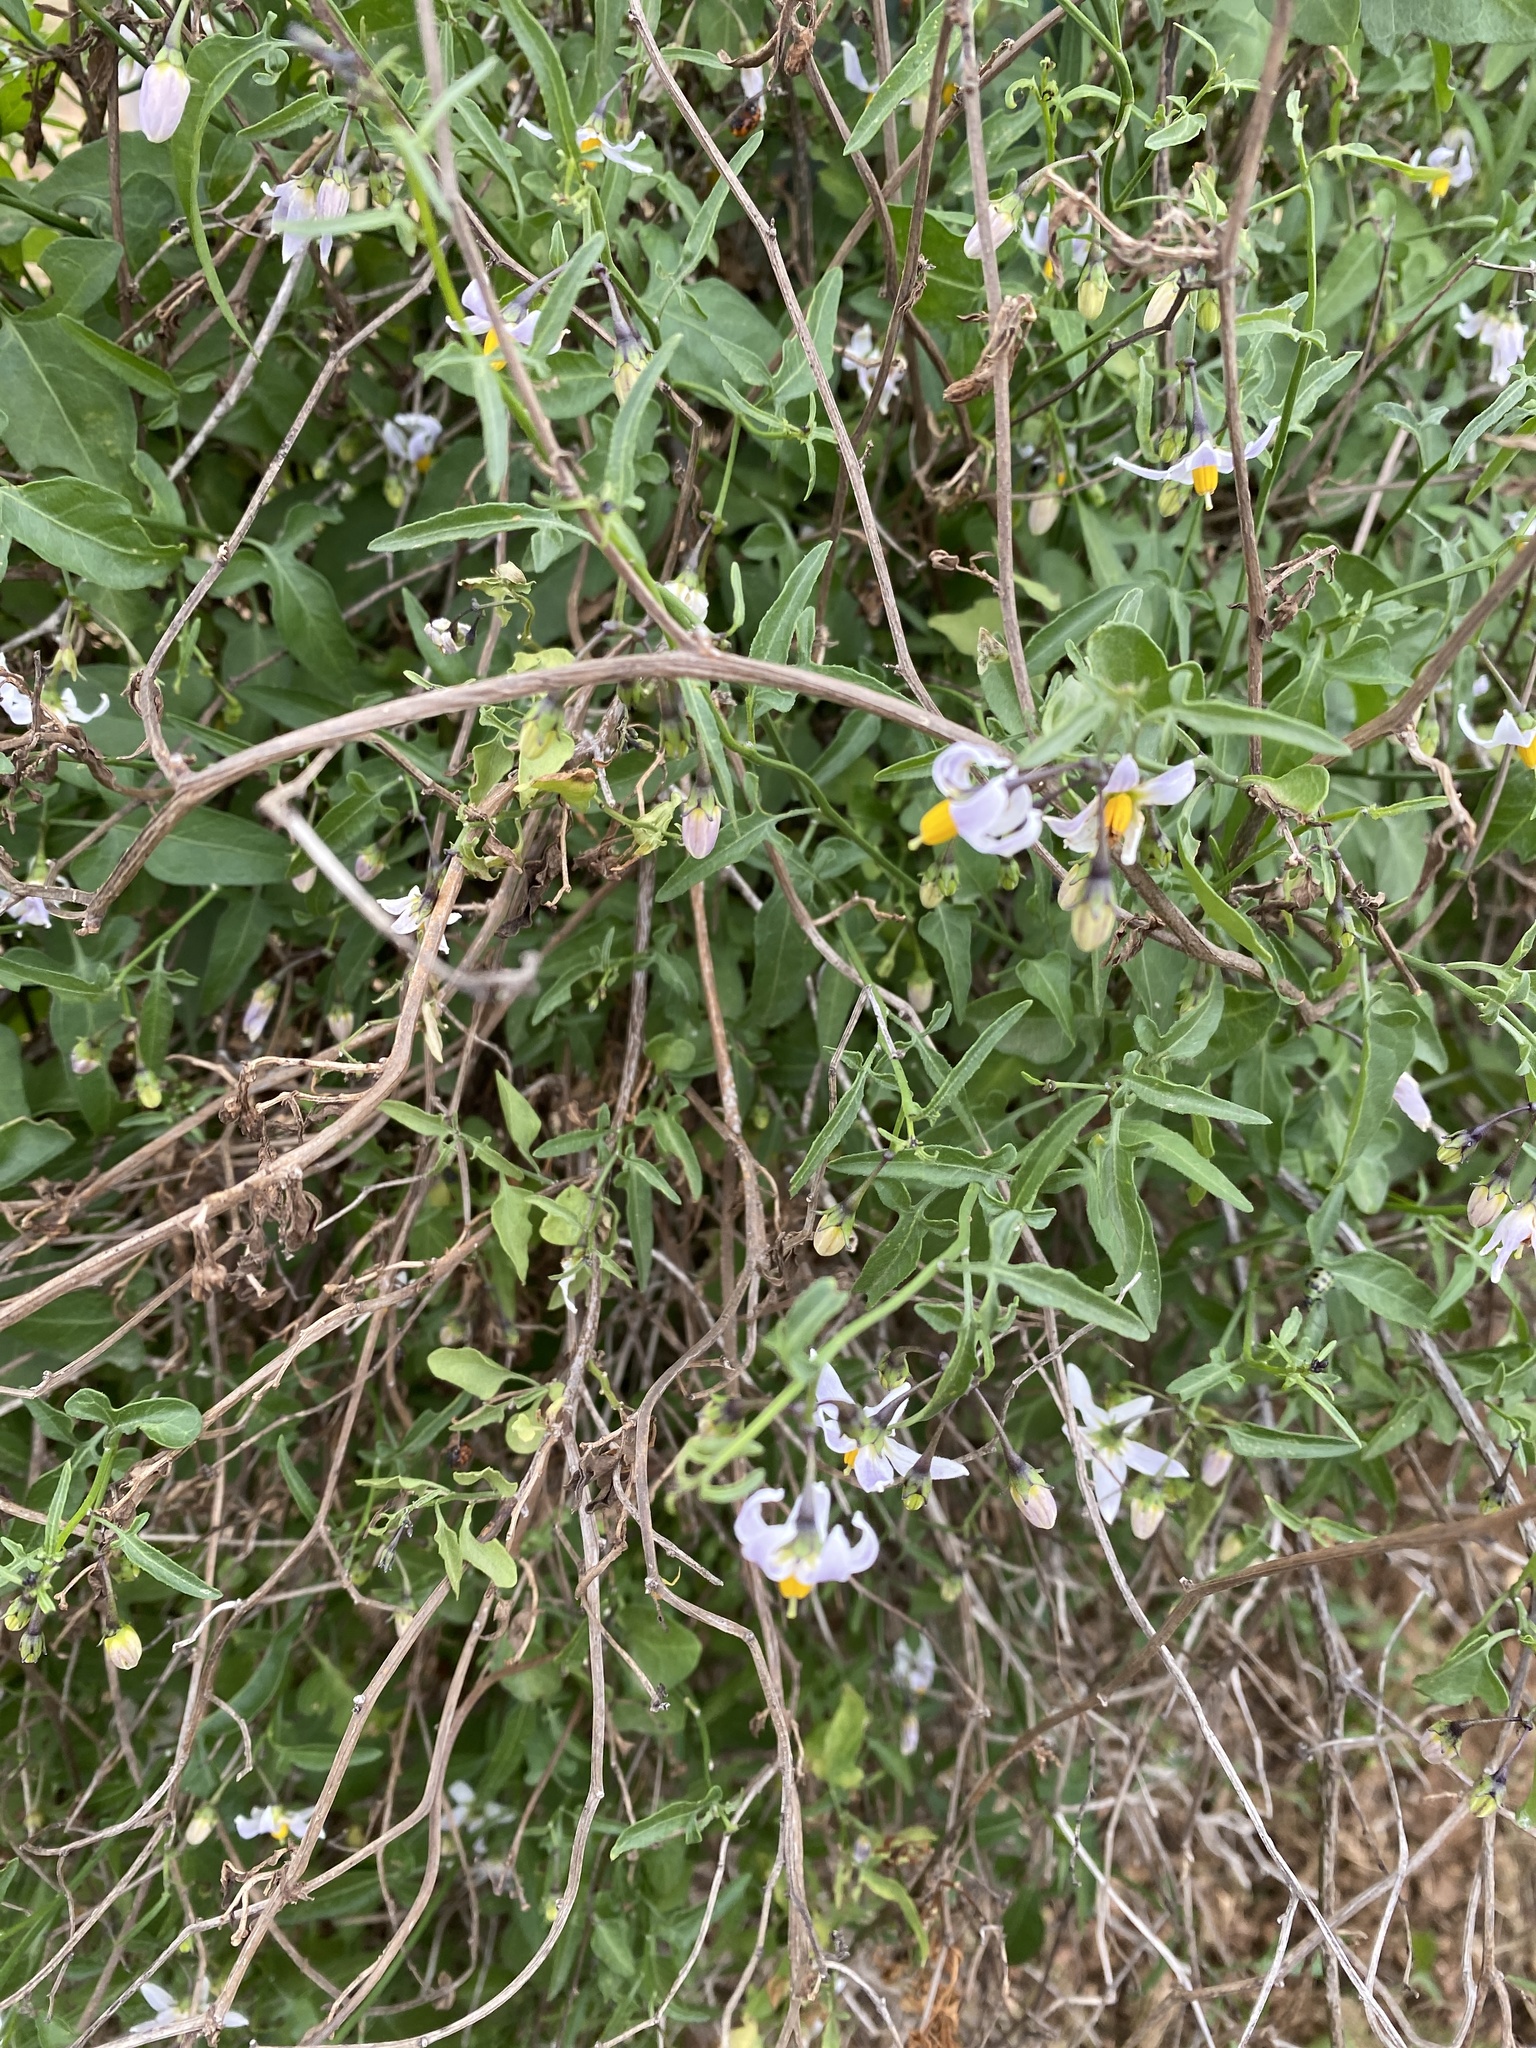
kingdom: Plantae
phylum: Tracheophyta
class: Magnoliopsida
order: Solanales
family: Solanaceae
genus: Solanum
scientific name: Solanum triquetrum
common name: Texas nightshade
